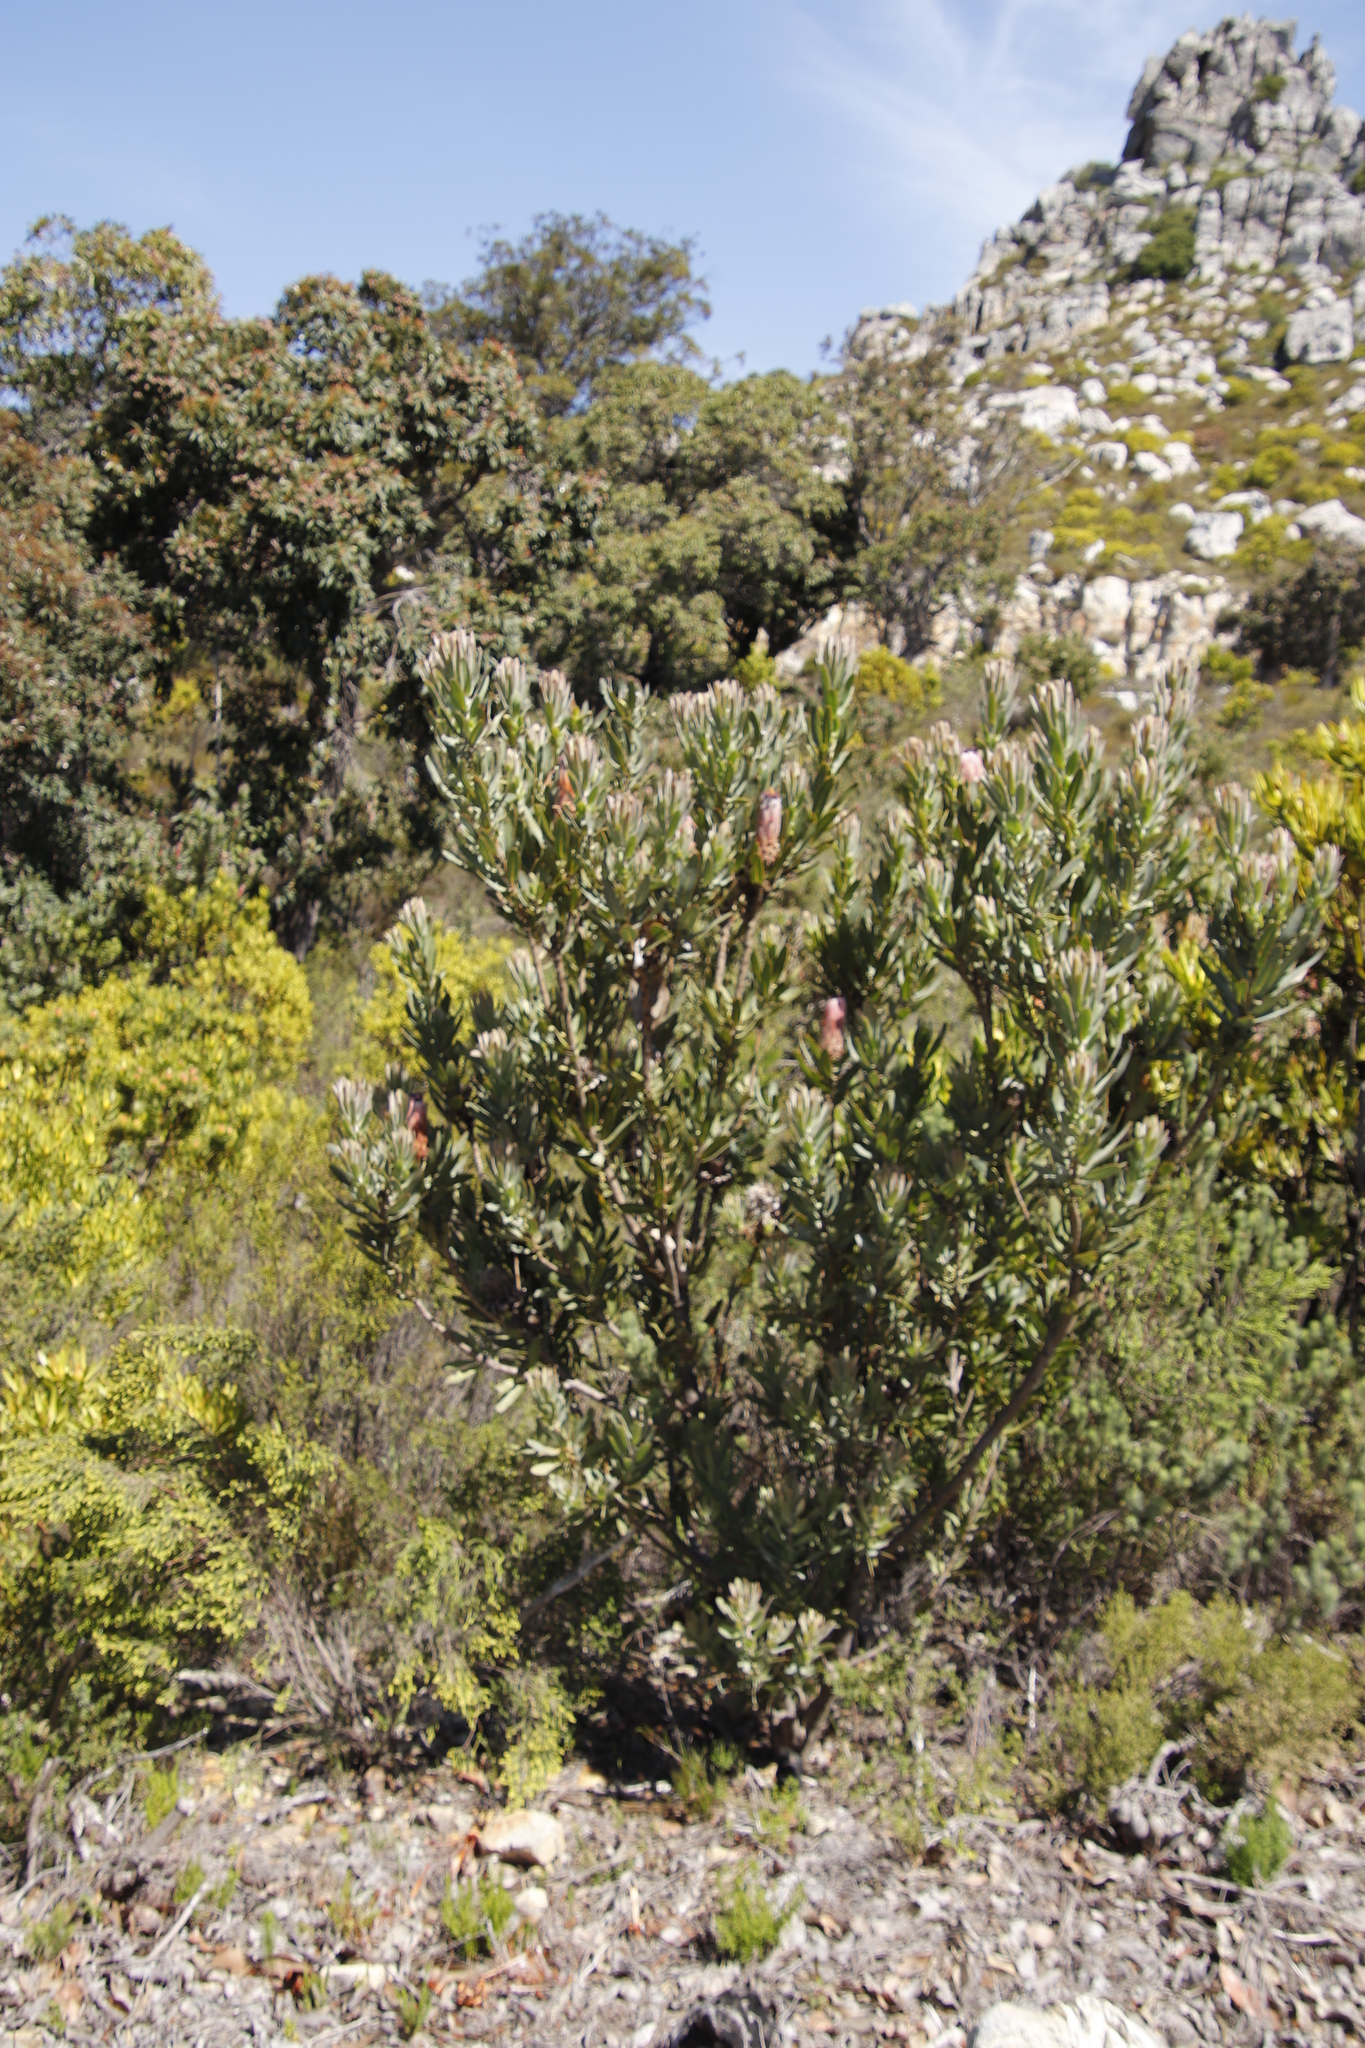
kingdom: Plantae
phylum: Tracheophyta
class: Magnoliopsida
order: Proteales
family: Proteaceae
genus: Protea
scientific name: Protea laurifolia
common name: Grey-leaf sugarbsh
